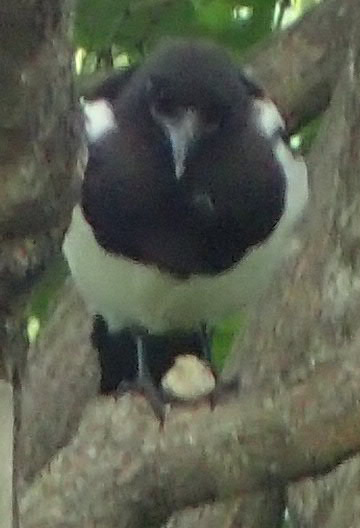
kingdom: Animalia
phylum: Chordata
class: Aves
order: Passeriformes
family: Corvidae
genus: Pica
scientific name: Pica hudsonia
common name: Black-billed magpie
